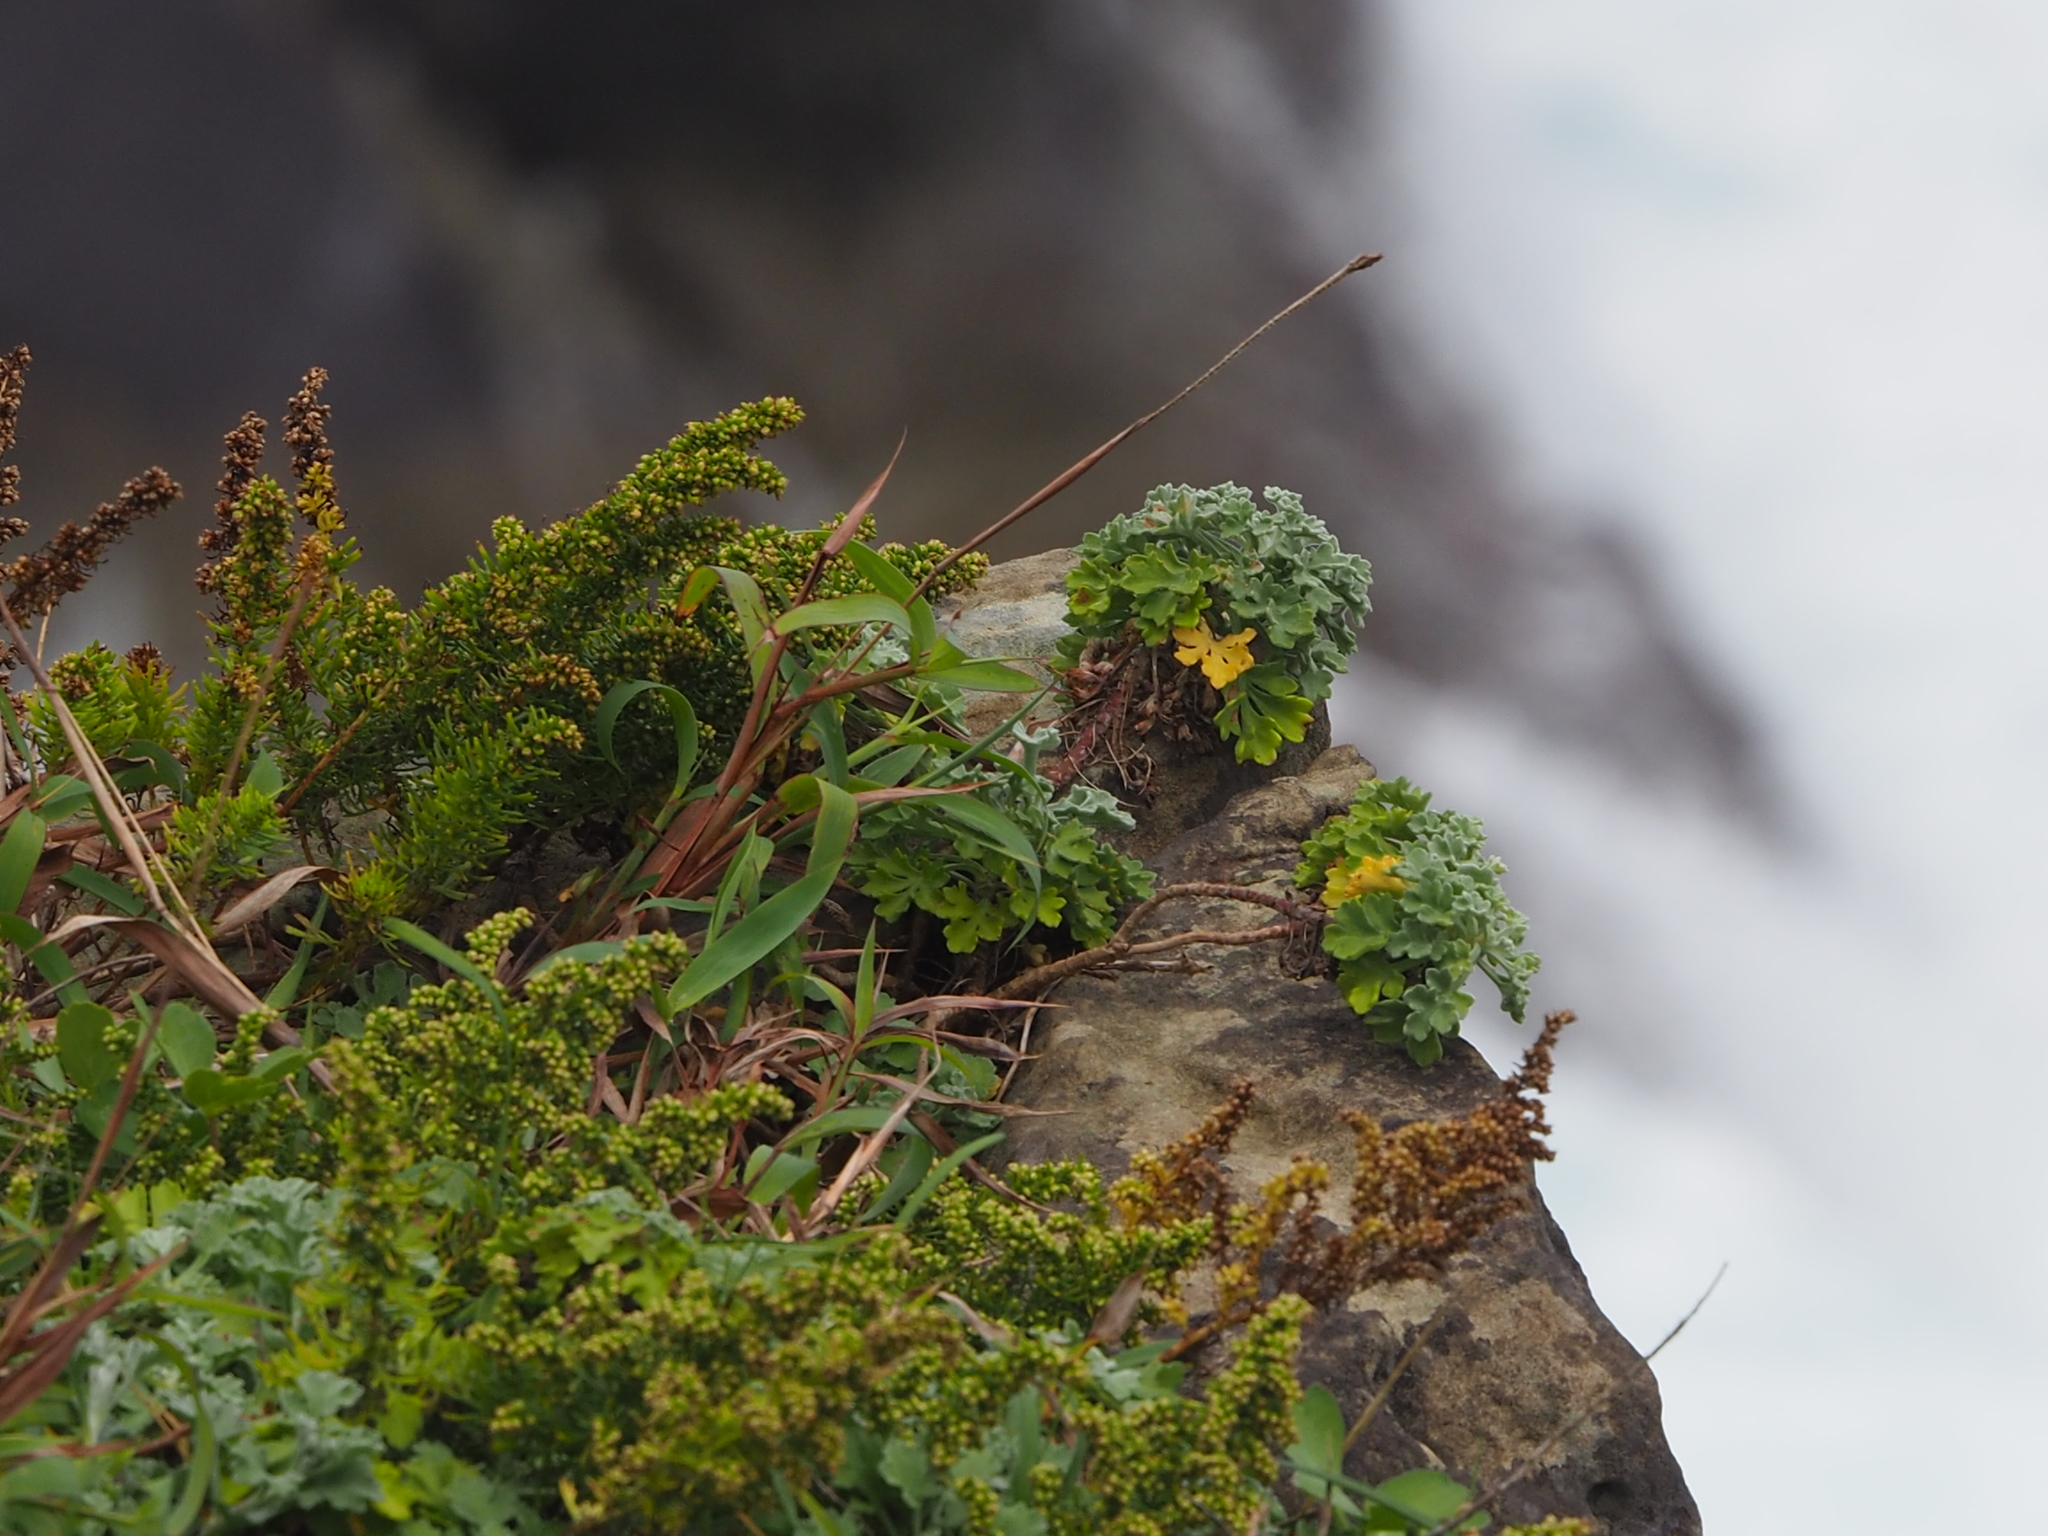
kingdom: Plantae
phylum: Tracheophyta
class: Magnoliopsida
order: Asterales
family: Asteraceae
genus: Artemisia
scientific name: Artemisia capillaris
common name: Yin-chen wormwood
